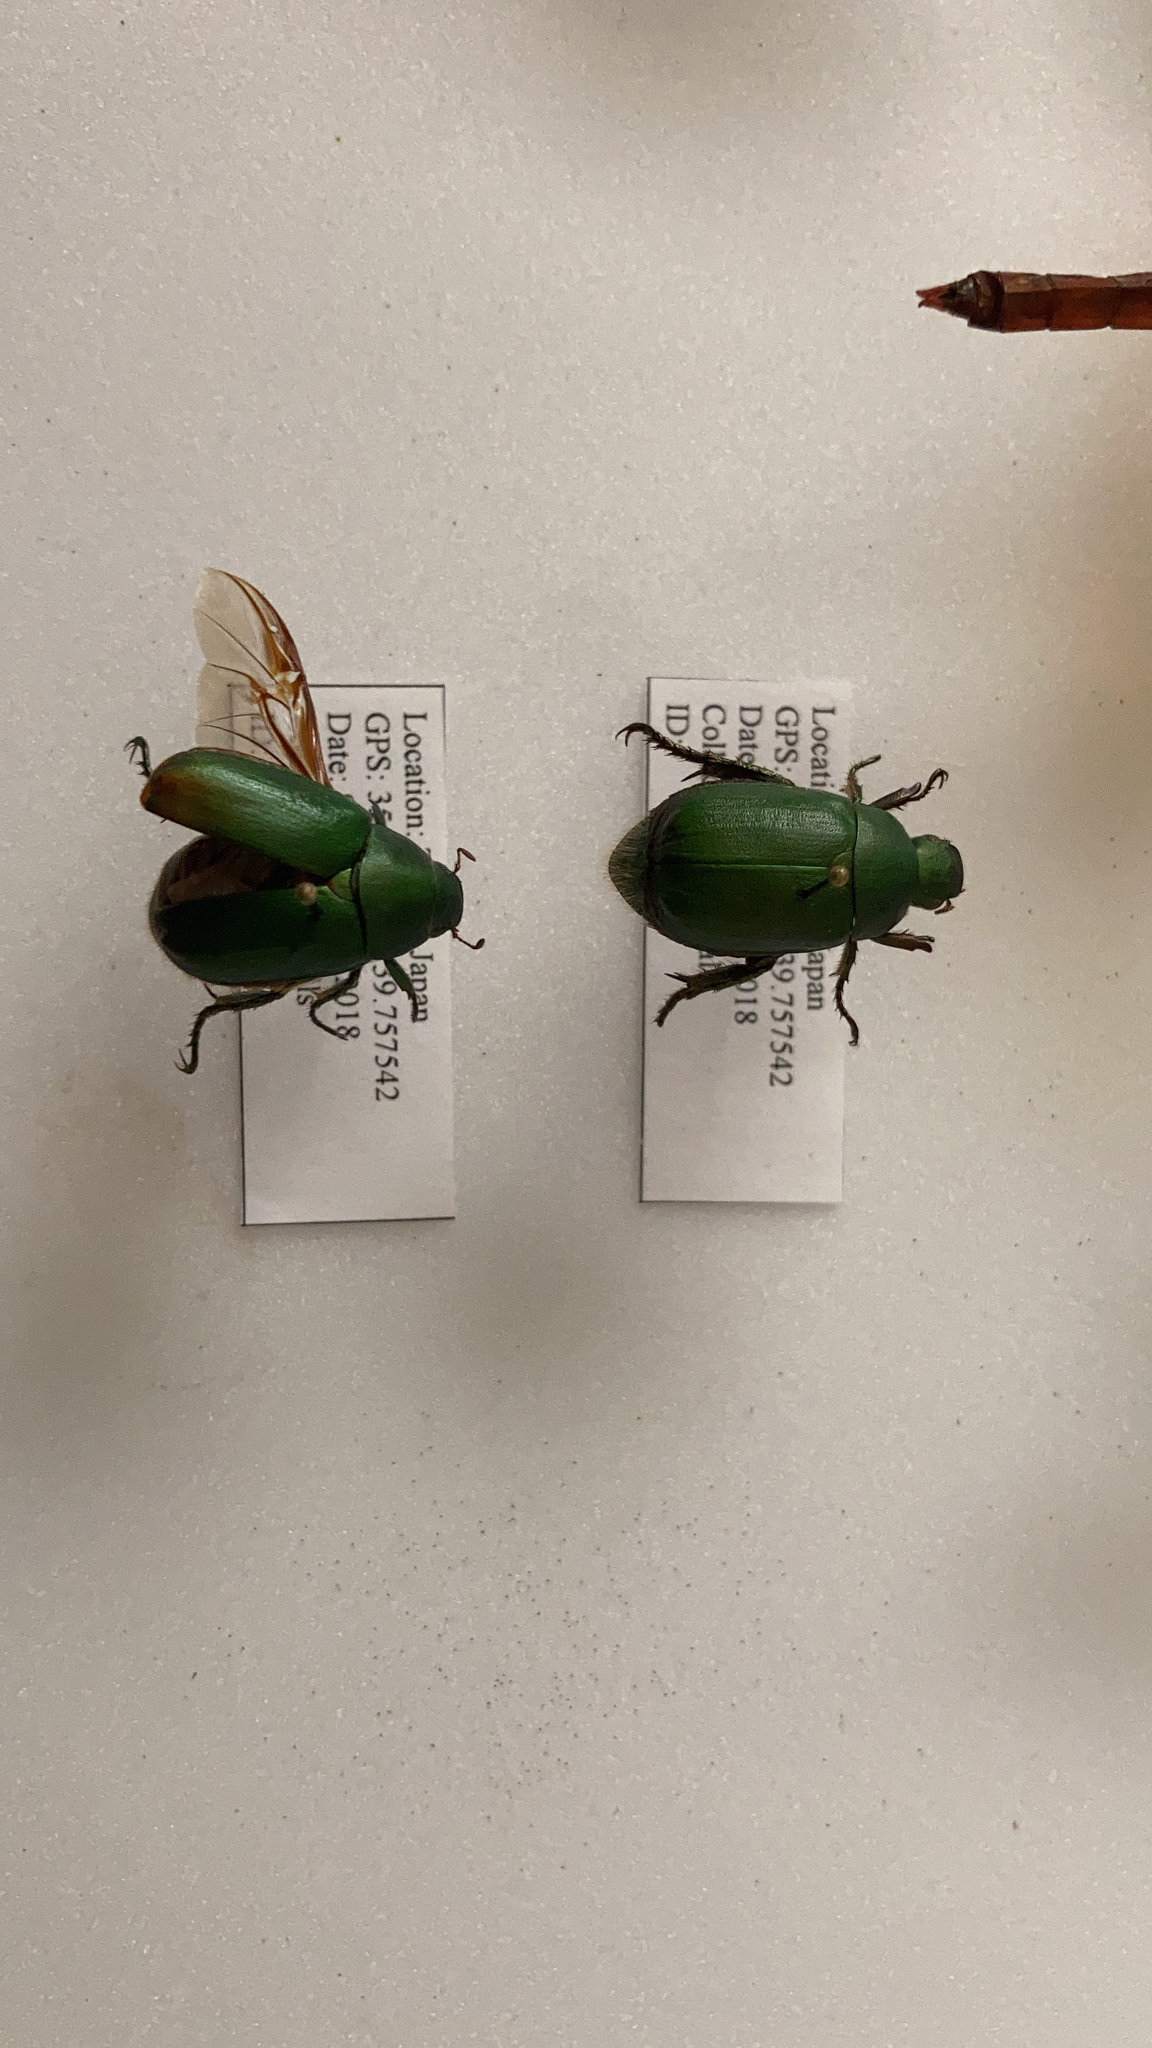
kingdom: Animalia
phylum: Arthropoda
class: Insecta
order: Coleoptera
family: Scarabaeidae
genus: Anomala
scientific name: Anomala albopilosa
